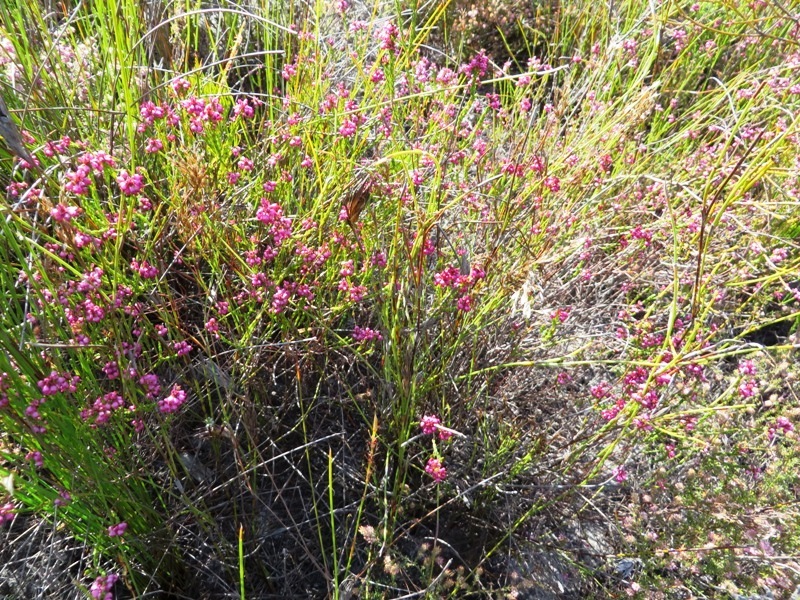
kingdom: Plantae
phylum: Tracheophyta
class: Magnoliopsida
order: Ericales
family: Ericaceae
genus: Erica
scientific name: Erica rhopalantha
